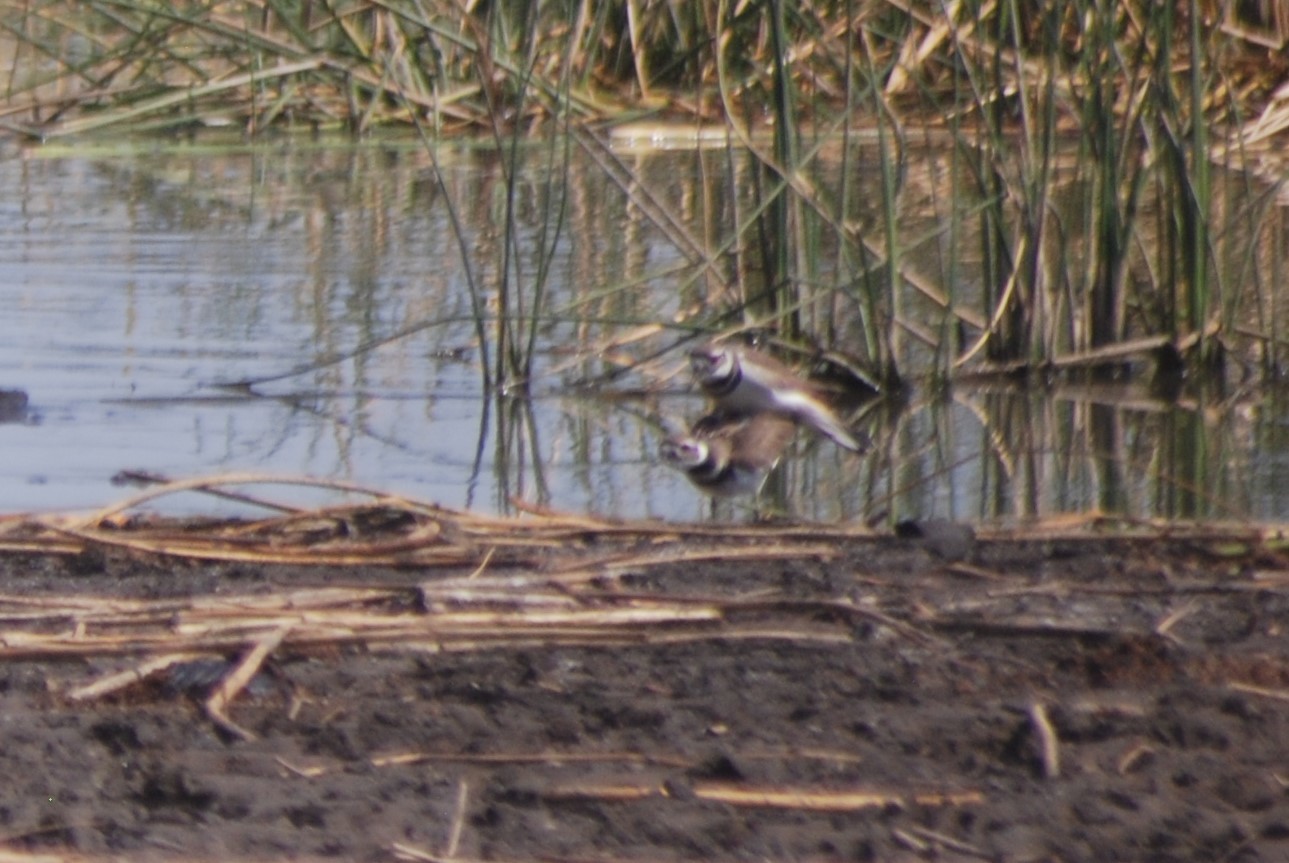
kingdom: Animalia
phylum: Chordata
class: Aves
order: Charadriiformes
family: Charadriidae
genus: Charadrius
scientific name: Charadrius vociferus
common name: Killdeer
